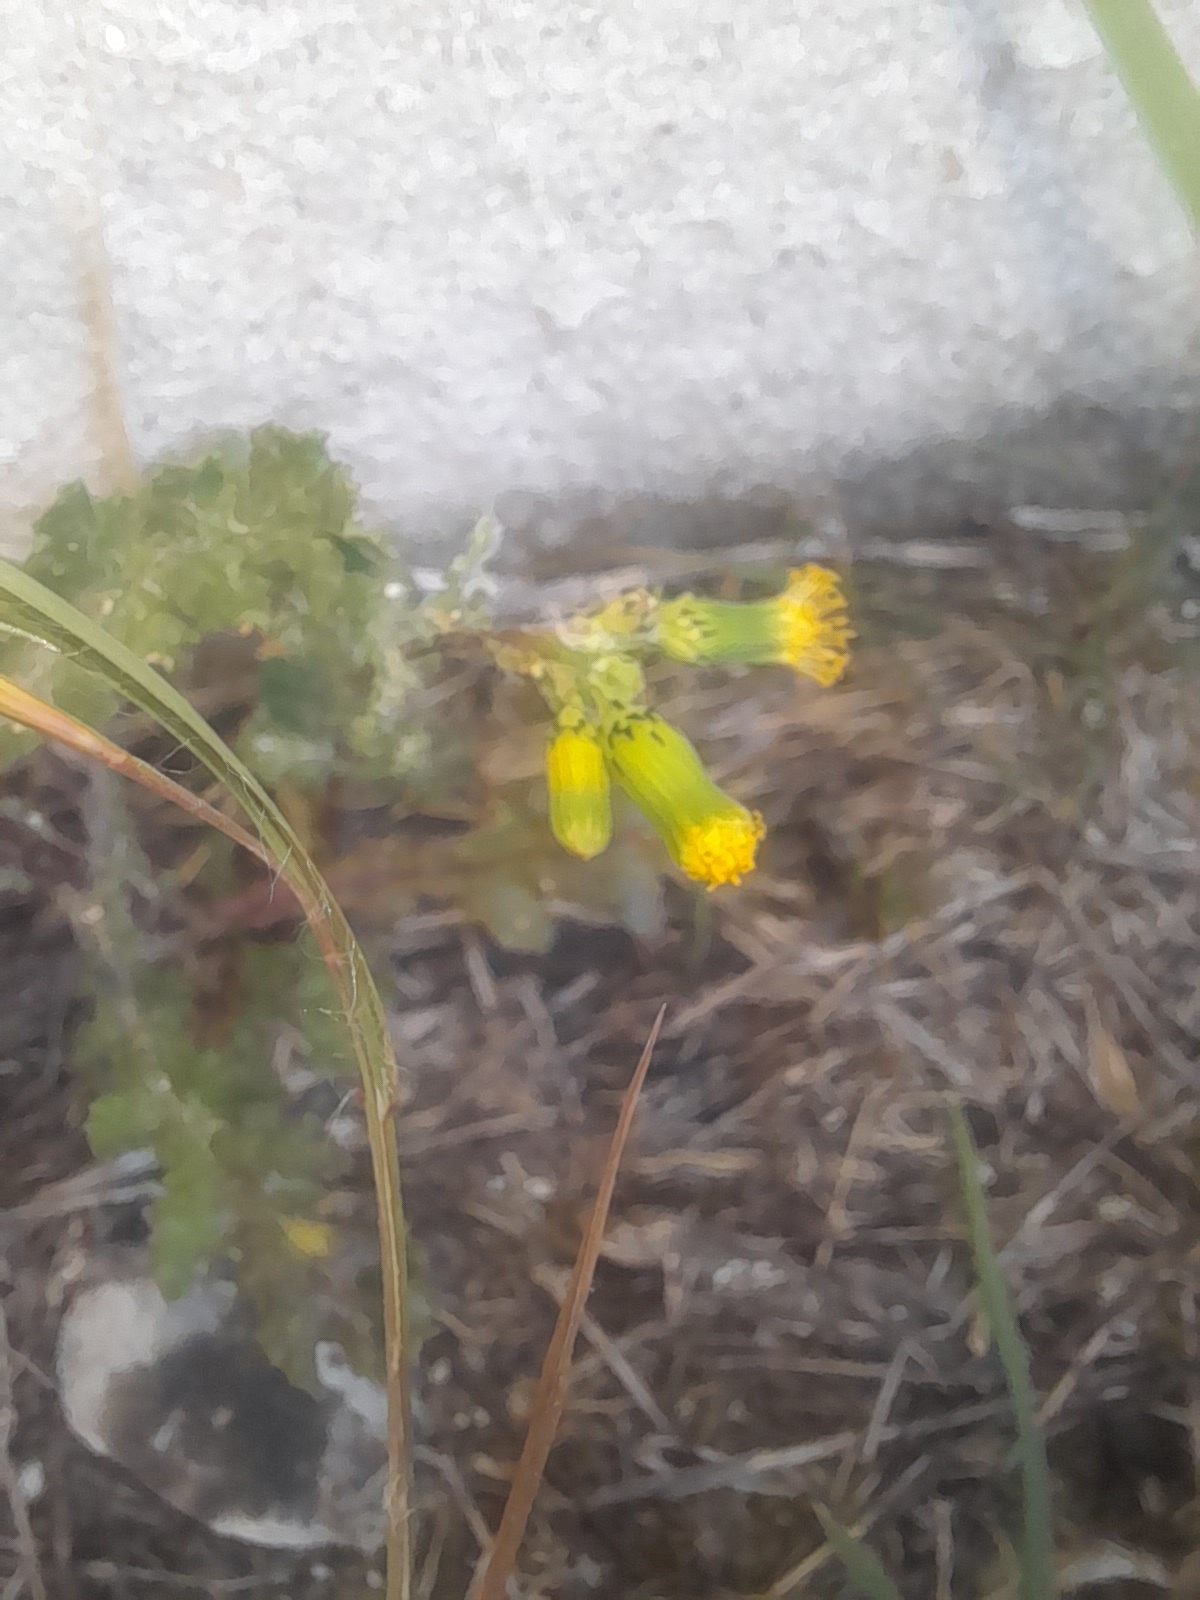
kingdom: Plantae
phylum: Tracheophyta
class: Magnoliopsida
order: Asterales
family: Asteraceae
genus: Senecio
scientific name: Senecio vulgaris
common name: Old-man-in-the-spring
